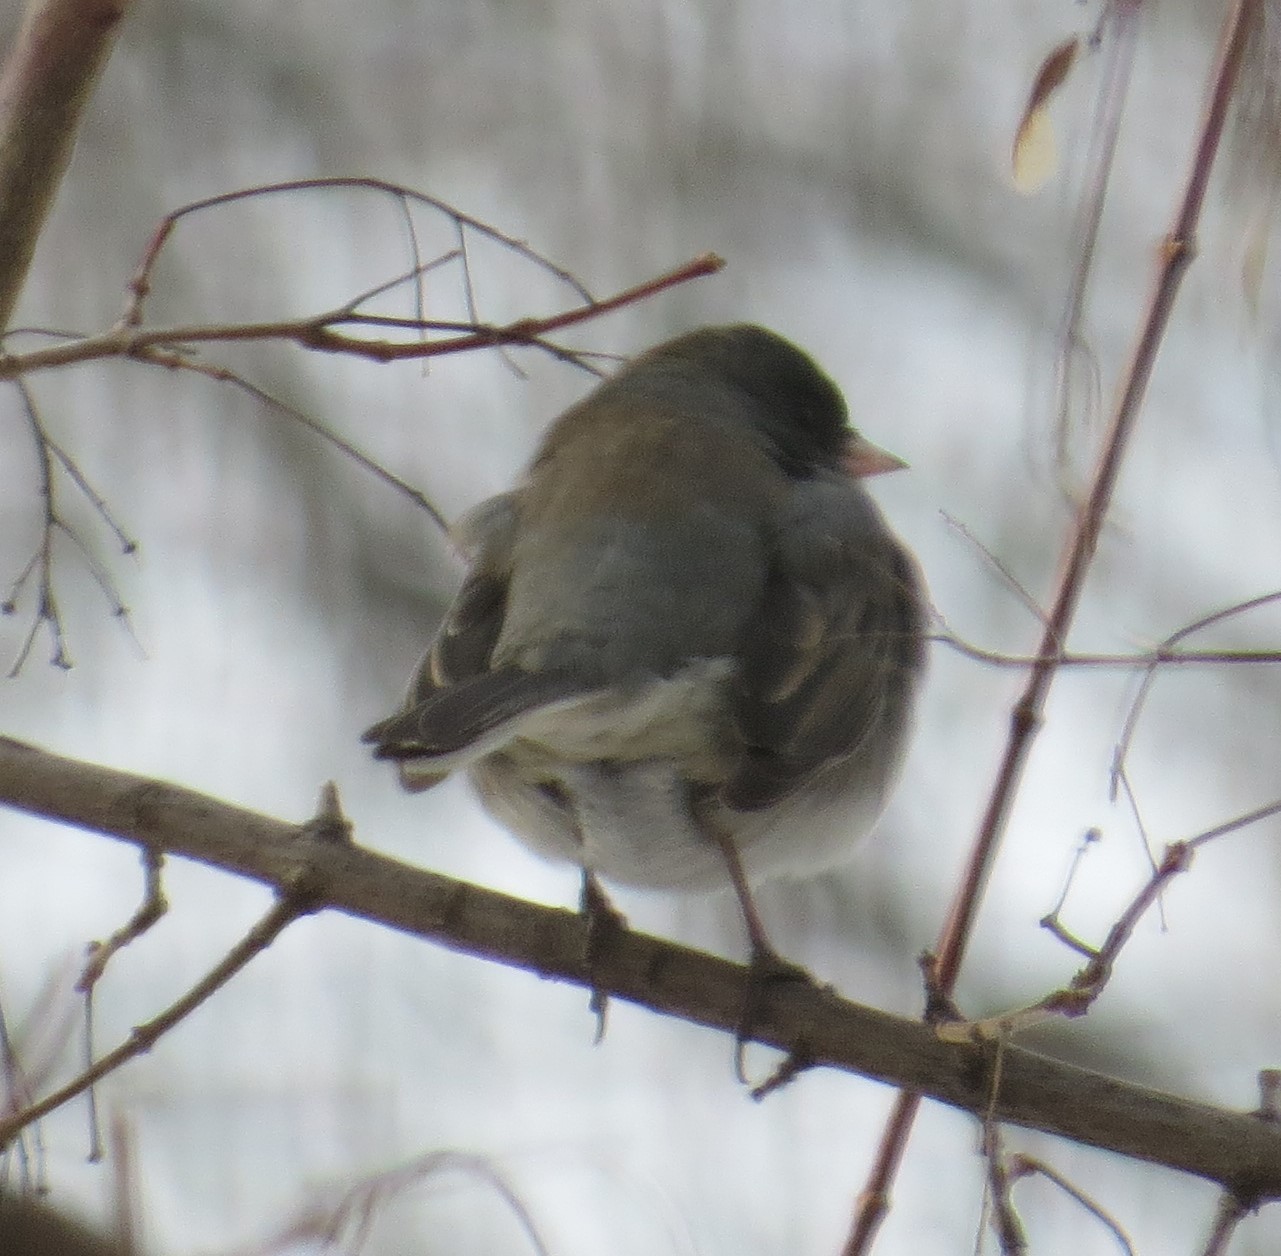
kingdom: Animalia
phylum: Chordata
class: Aves
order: Passeriformes
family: Passerellidae
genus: Junco
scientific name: Junco hyemalis
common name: Dark-eyed junco
